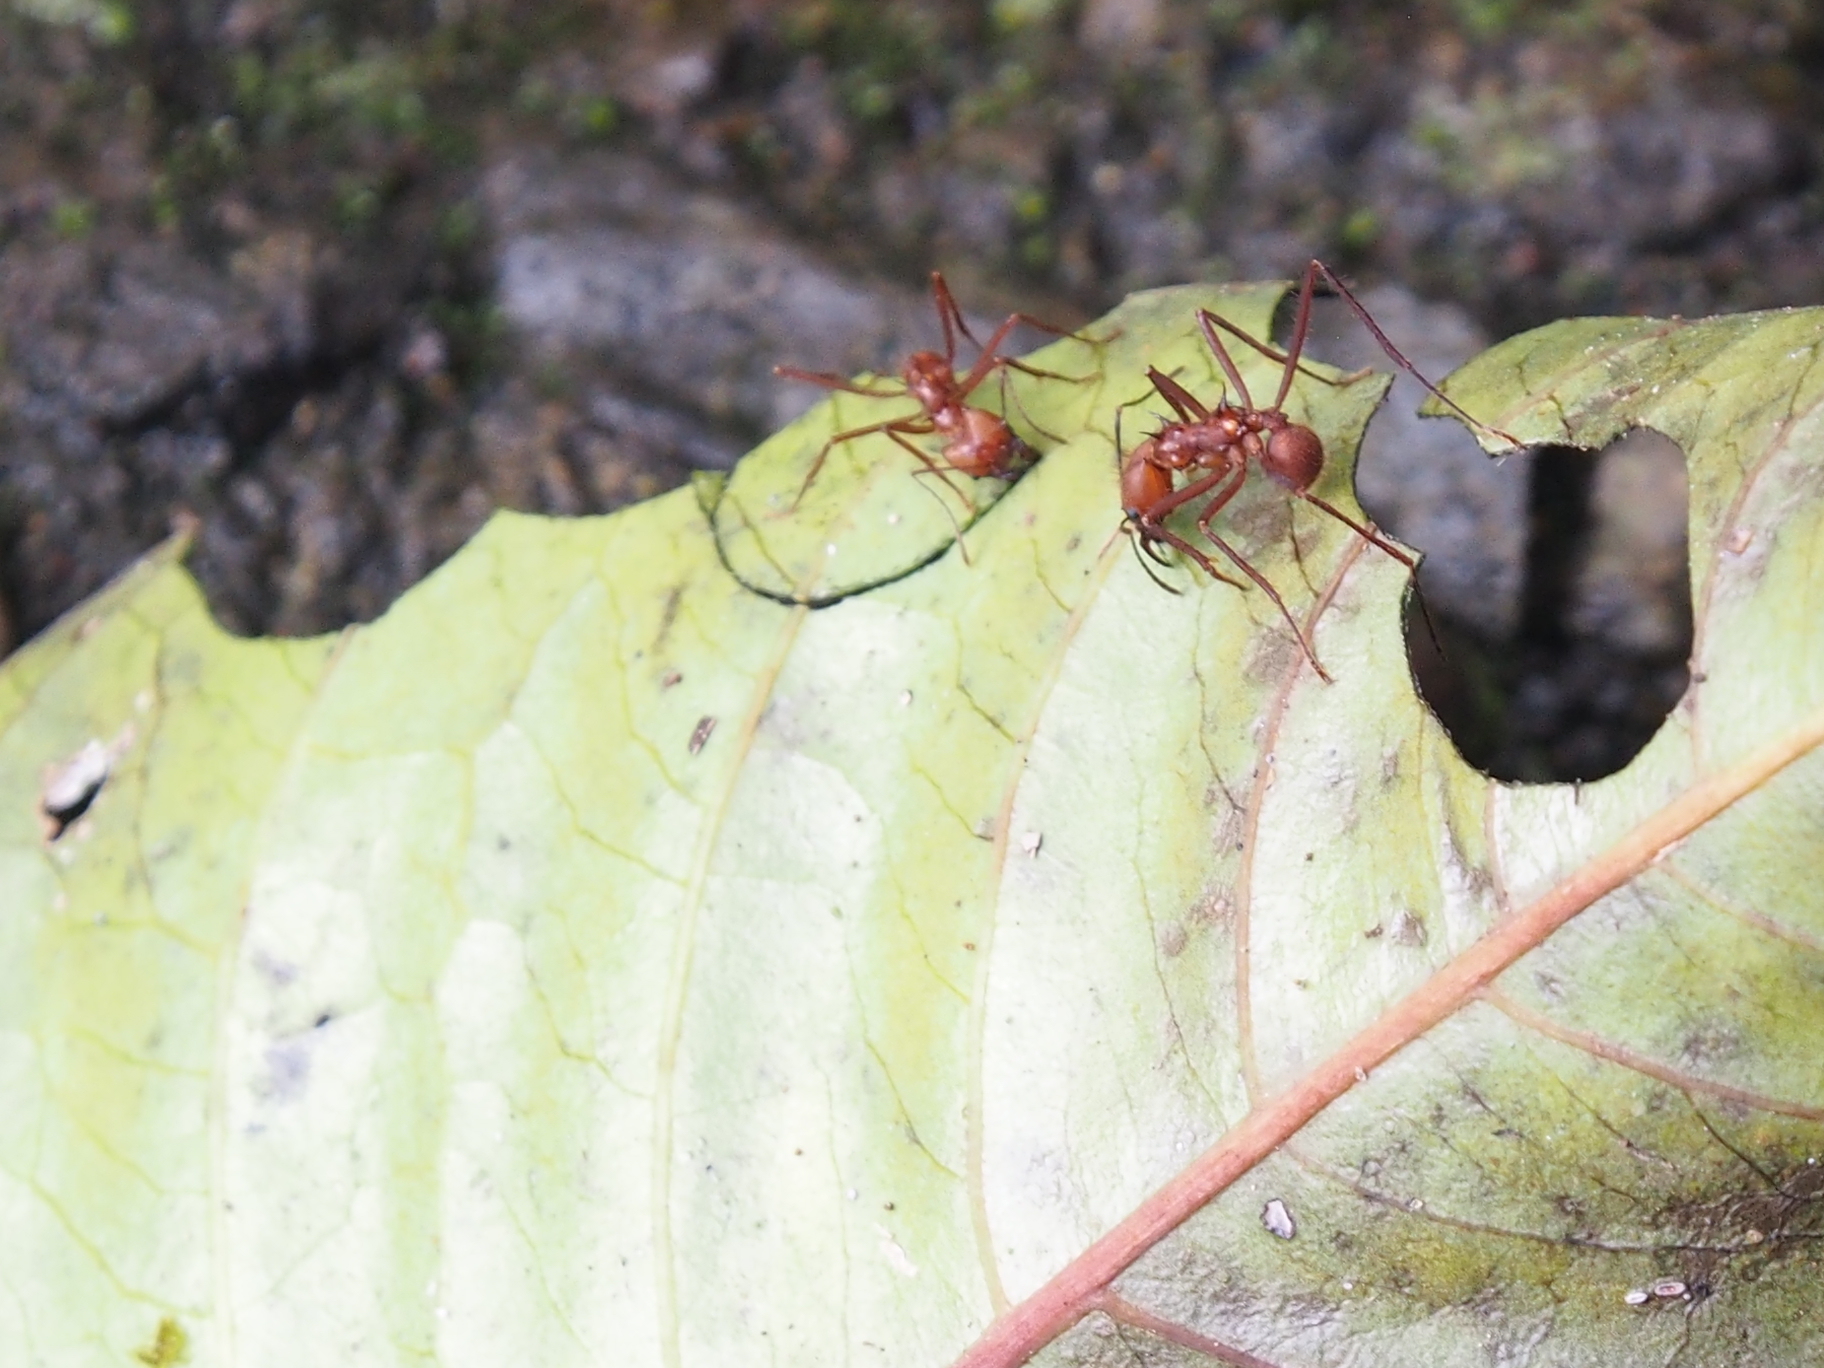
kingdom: Animalia
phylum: Arthropoda
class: Insecta
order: Hymenoptera
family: Formicidae
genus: Atta
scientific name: Atta cephalotes
